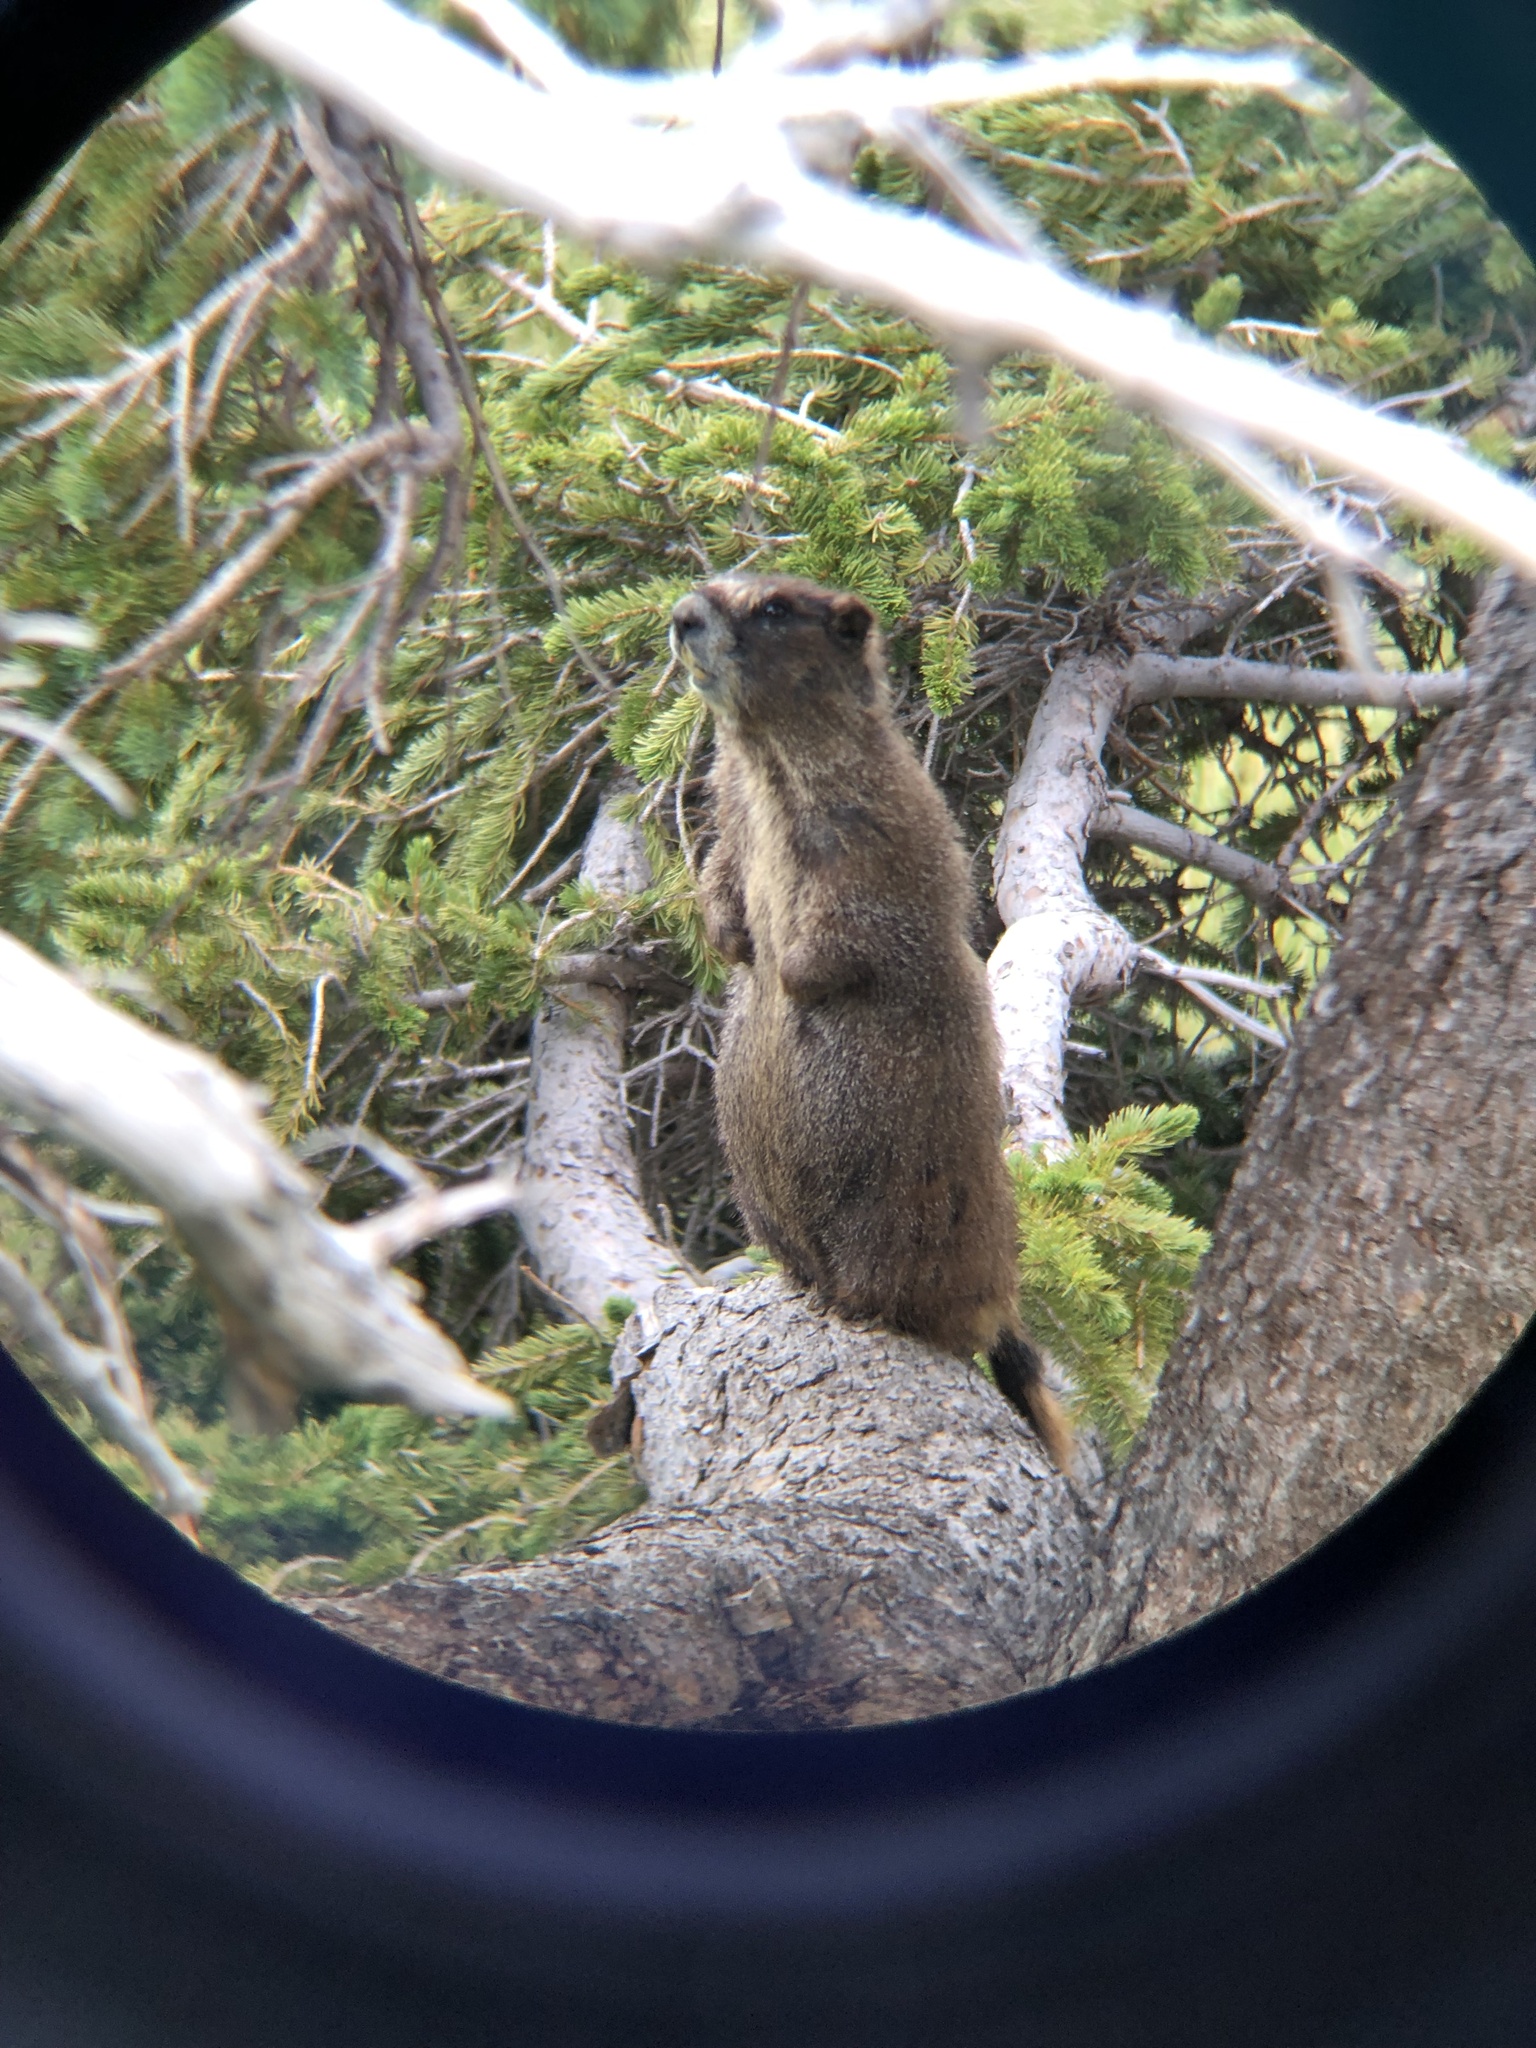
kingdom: Animalia
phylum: Chordata
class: Mammalia
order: Rodentia
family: Sciuridae
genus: Marmota
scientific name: Marmota flaviventris
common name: Yellow-bellied marmot
